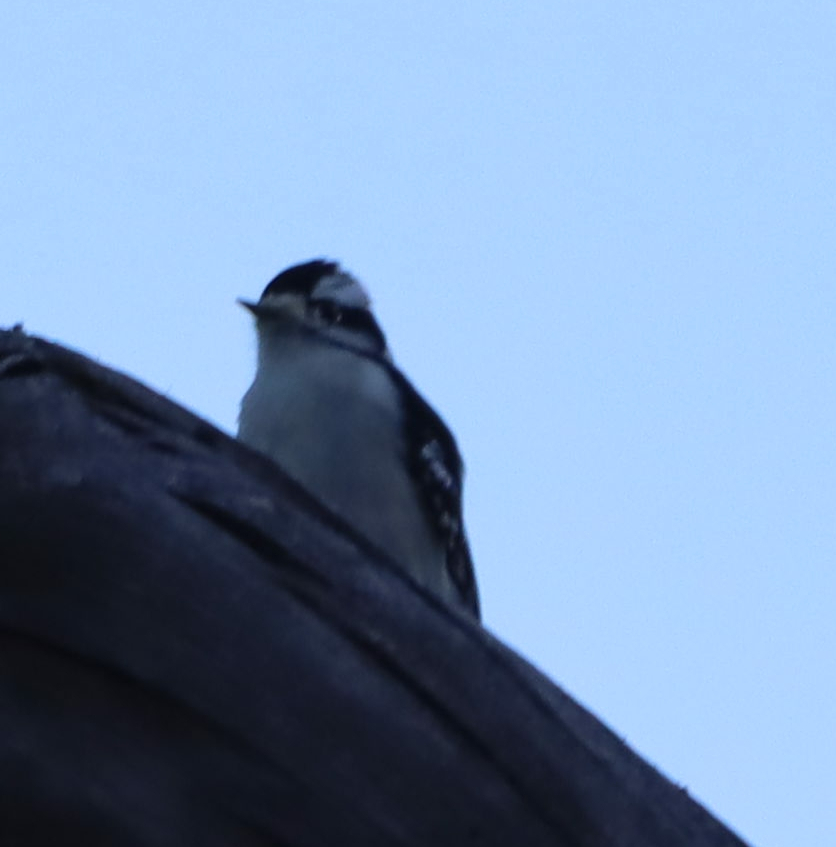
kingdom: Animalia
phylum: Chordata
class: Aves
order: Piciformes
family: Picidae
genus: Dryobates
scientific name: Dryobates pubescens
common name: Downy woodpecker
